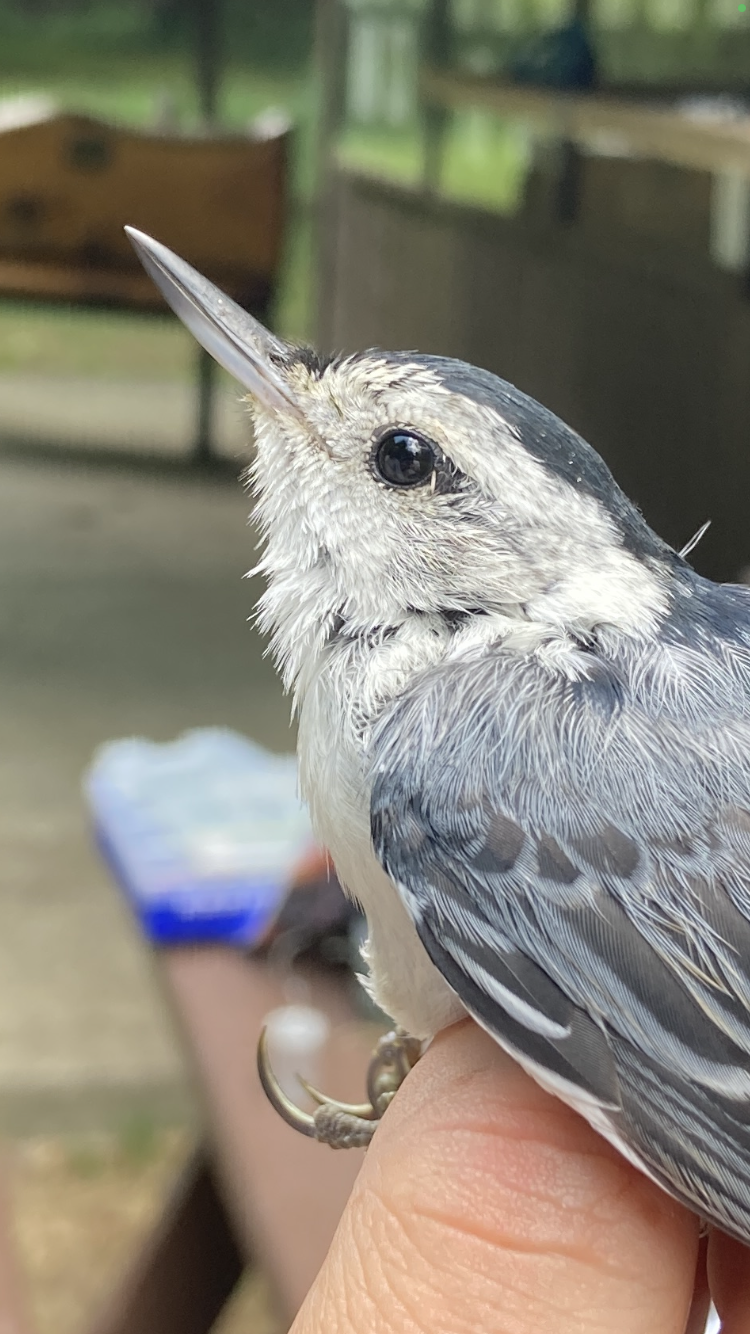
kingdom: Animalia
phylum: Chordata
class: Aves
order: Passeriformes
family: Sittidae
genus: Sitta
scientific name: Sitta carolinensis
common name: White-breasted nuthatch
